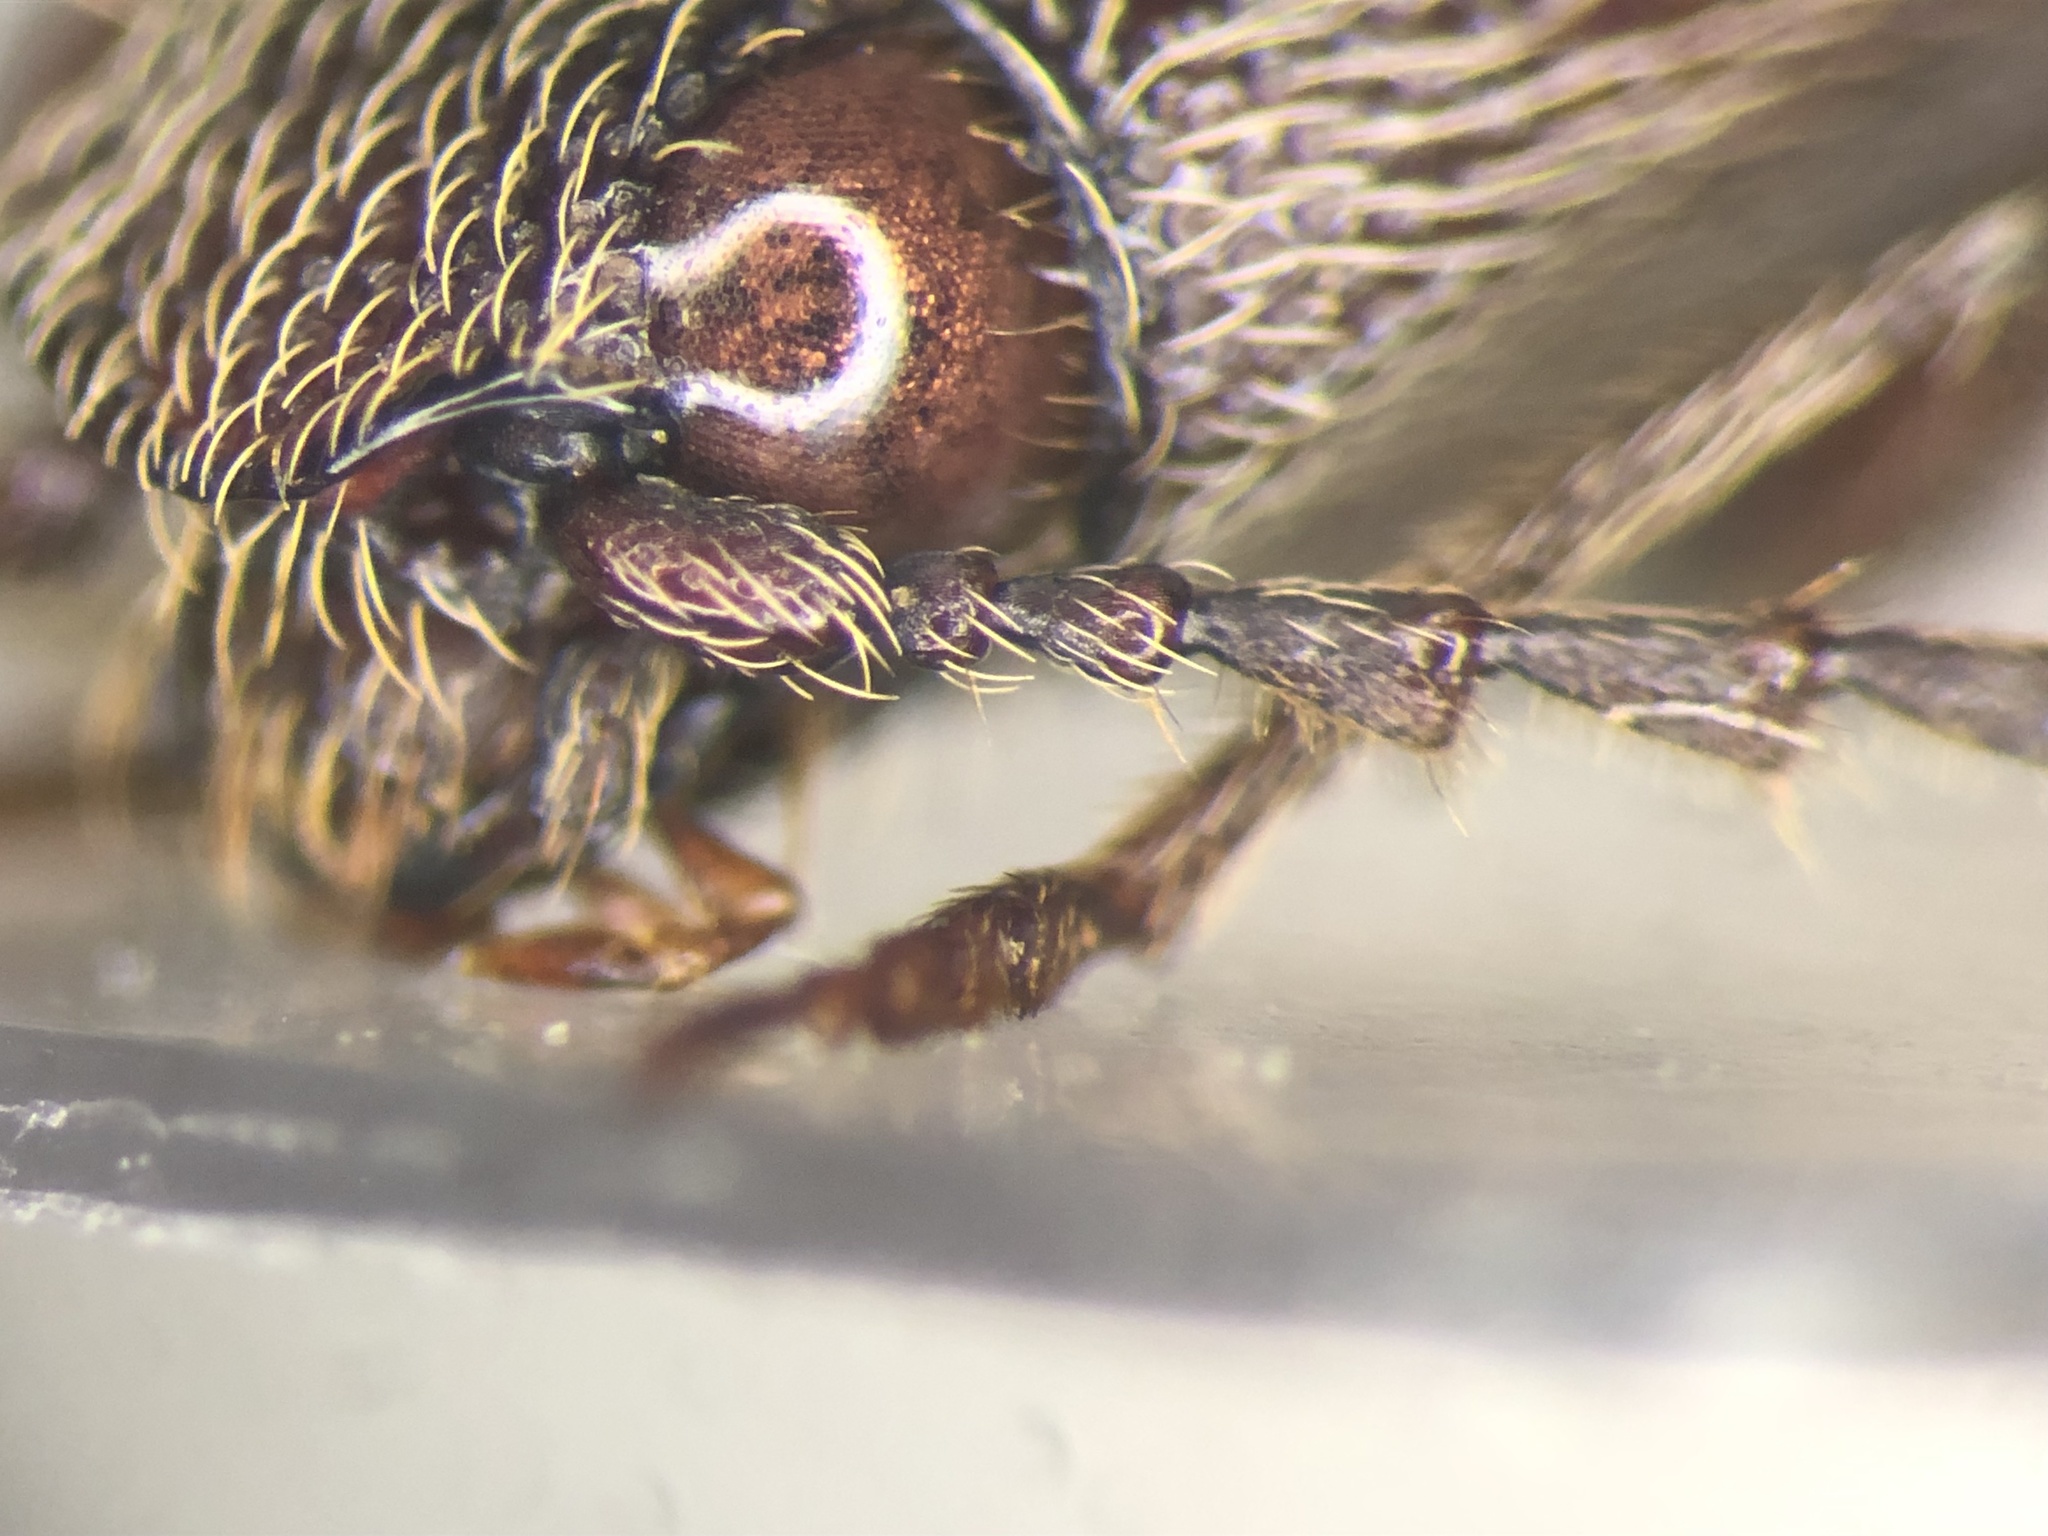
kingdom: Animalia
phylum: Arthropoda
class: Insecta
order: Coleoptera
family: Elateridae
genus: Melanotus
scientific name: Melanotus sagittarius
